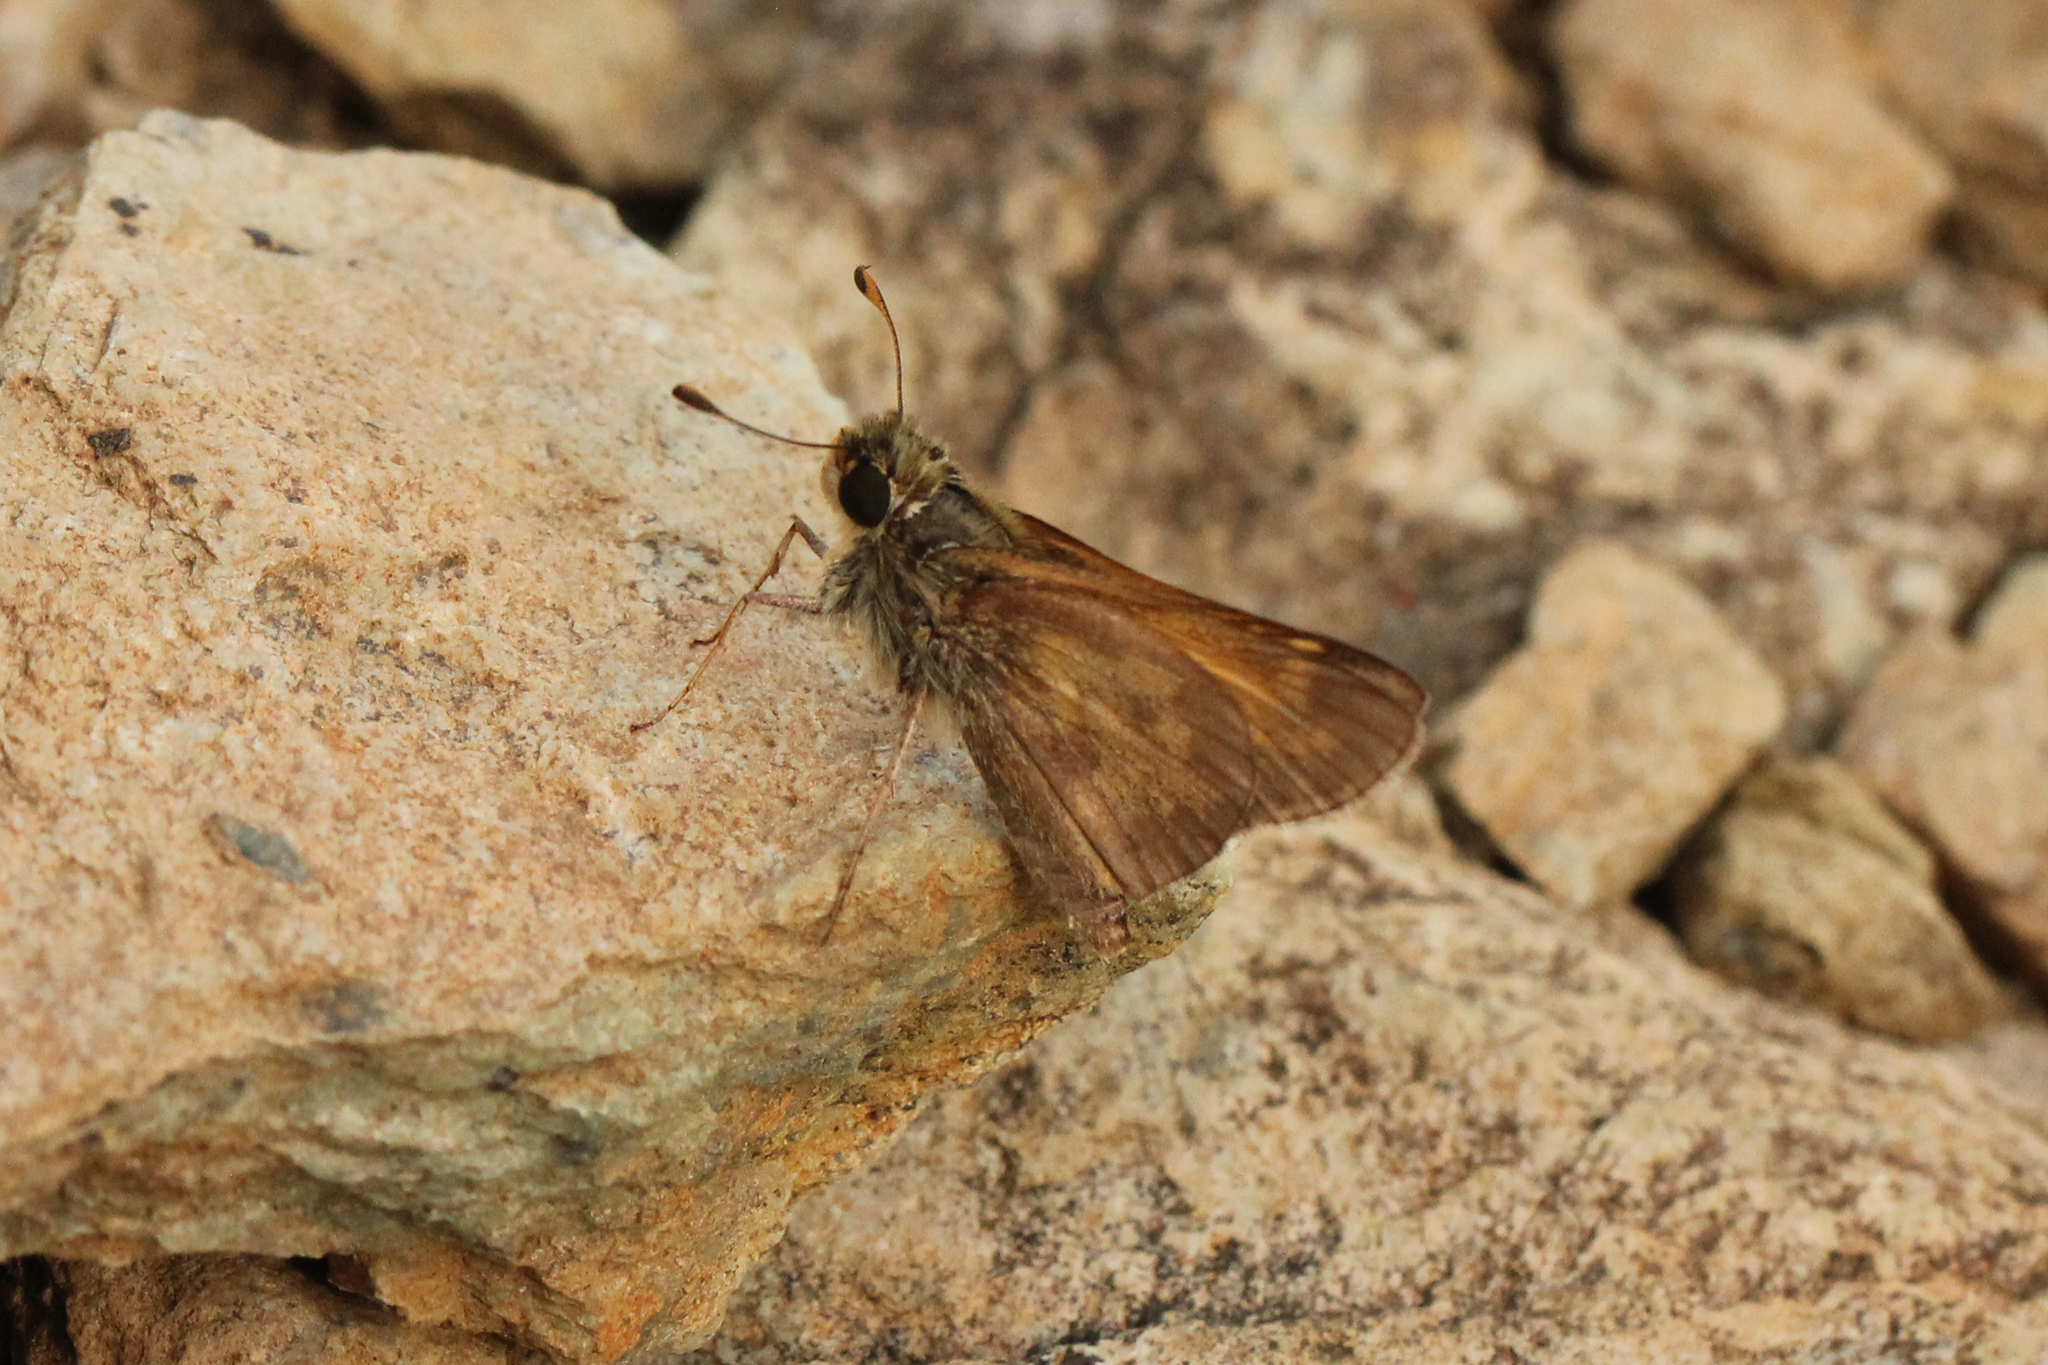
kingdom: Animalia
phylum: Arthropoda
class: Insecta
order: Lepidoptera
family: Hesperiidae
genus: Atalopedes
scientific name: Atalopedes
